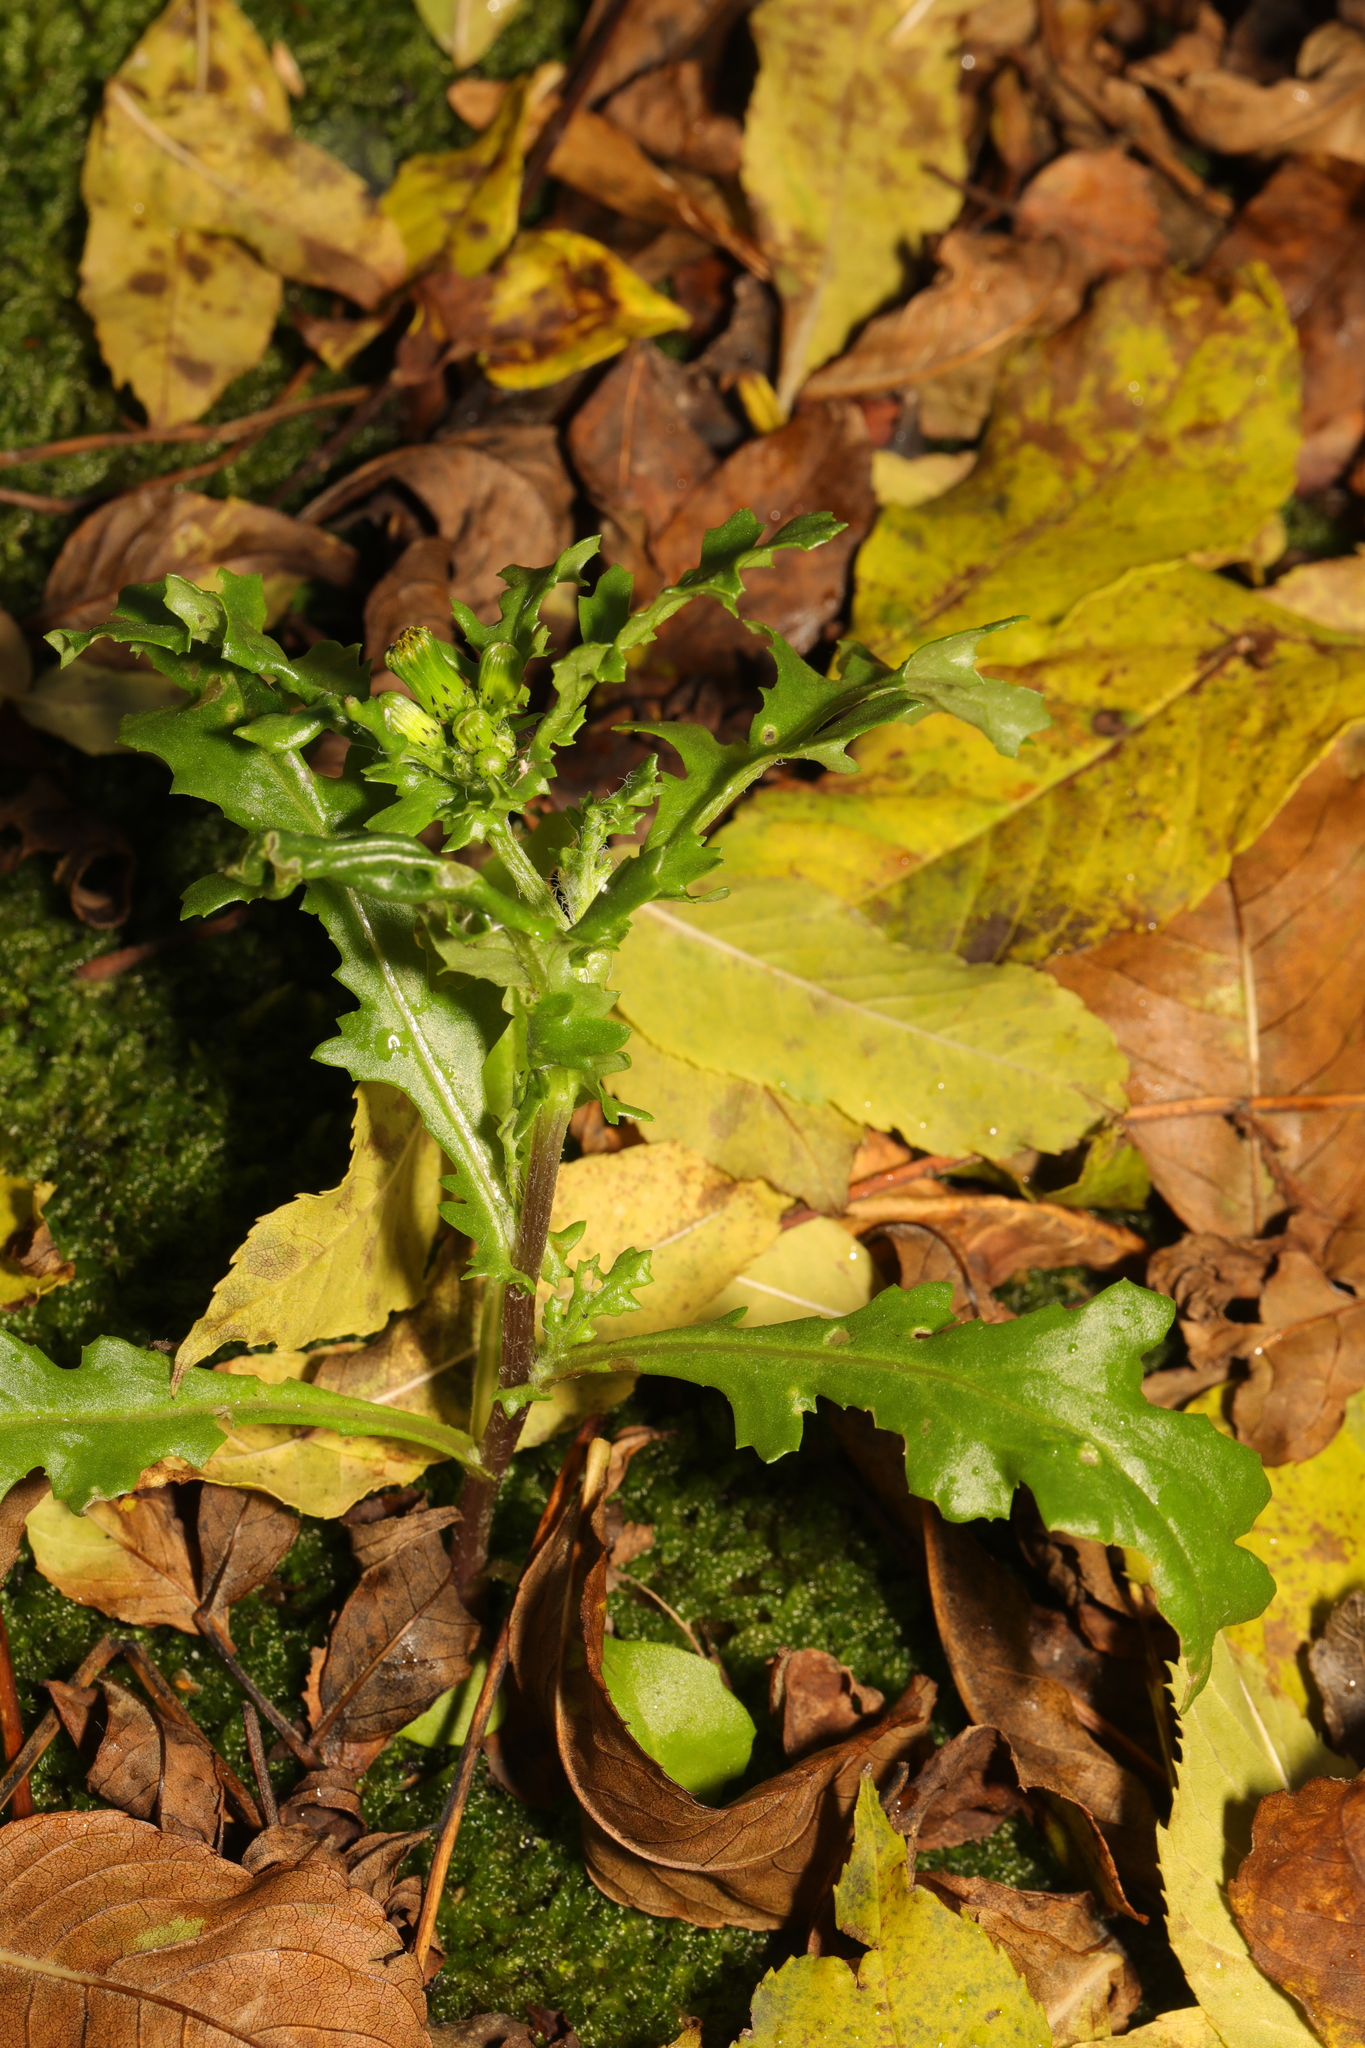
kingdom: Plantae
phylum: Tracheophyta
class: Magnoliopsida
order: Asterales
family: Asteraceae
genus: Senecio
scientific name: Senecio vulgaris
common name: Old-man-in-the-spring
